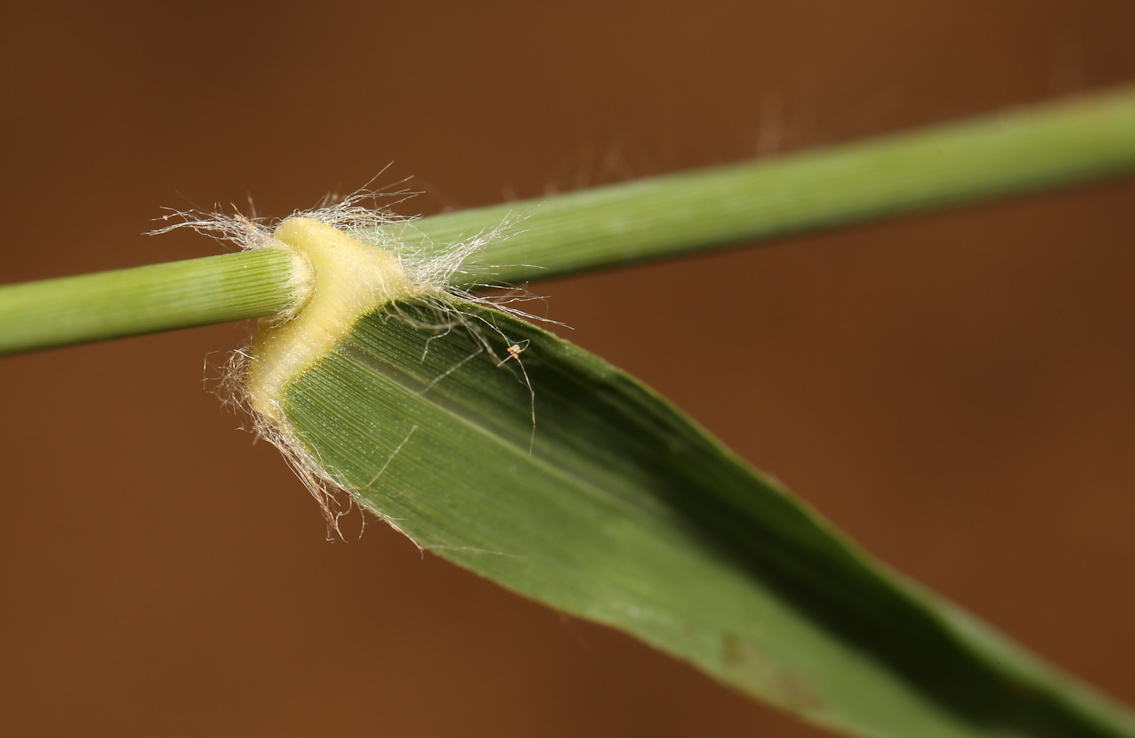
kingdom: Plantae
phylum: Tracheophyta
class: Liliopsida
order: Poales
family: Poaceae
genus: Eragrostis
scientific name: Eragrostis superba
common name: Wilman lovegrass
